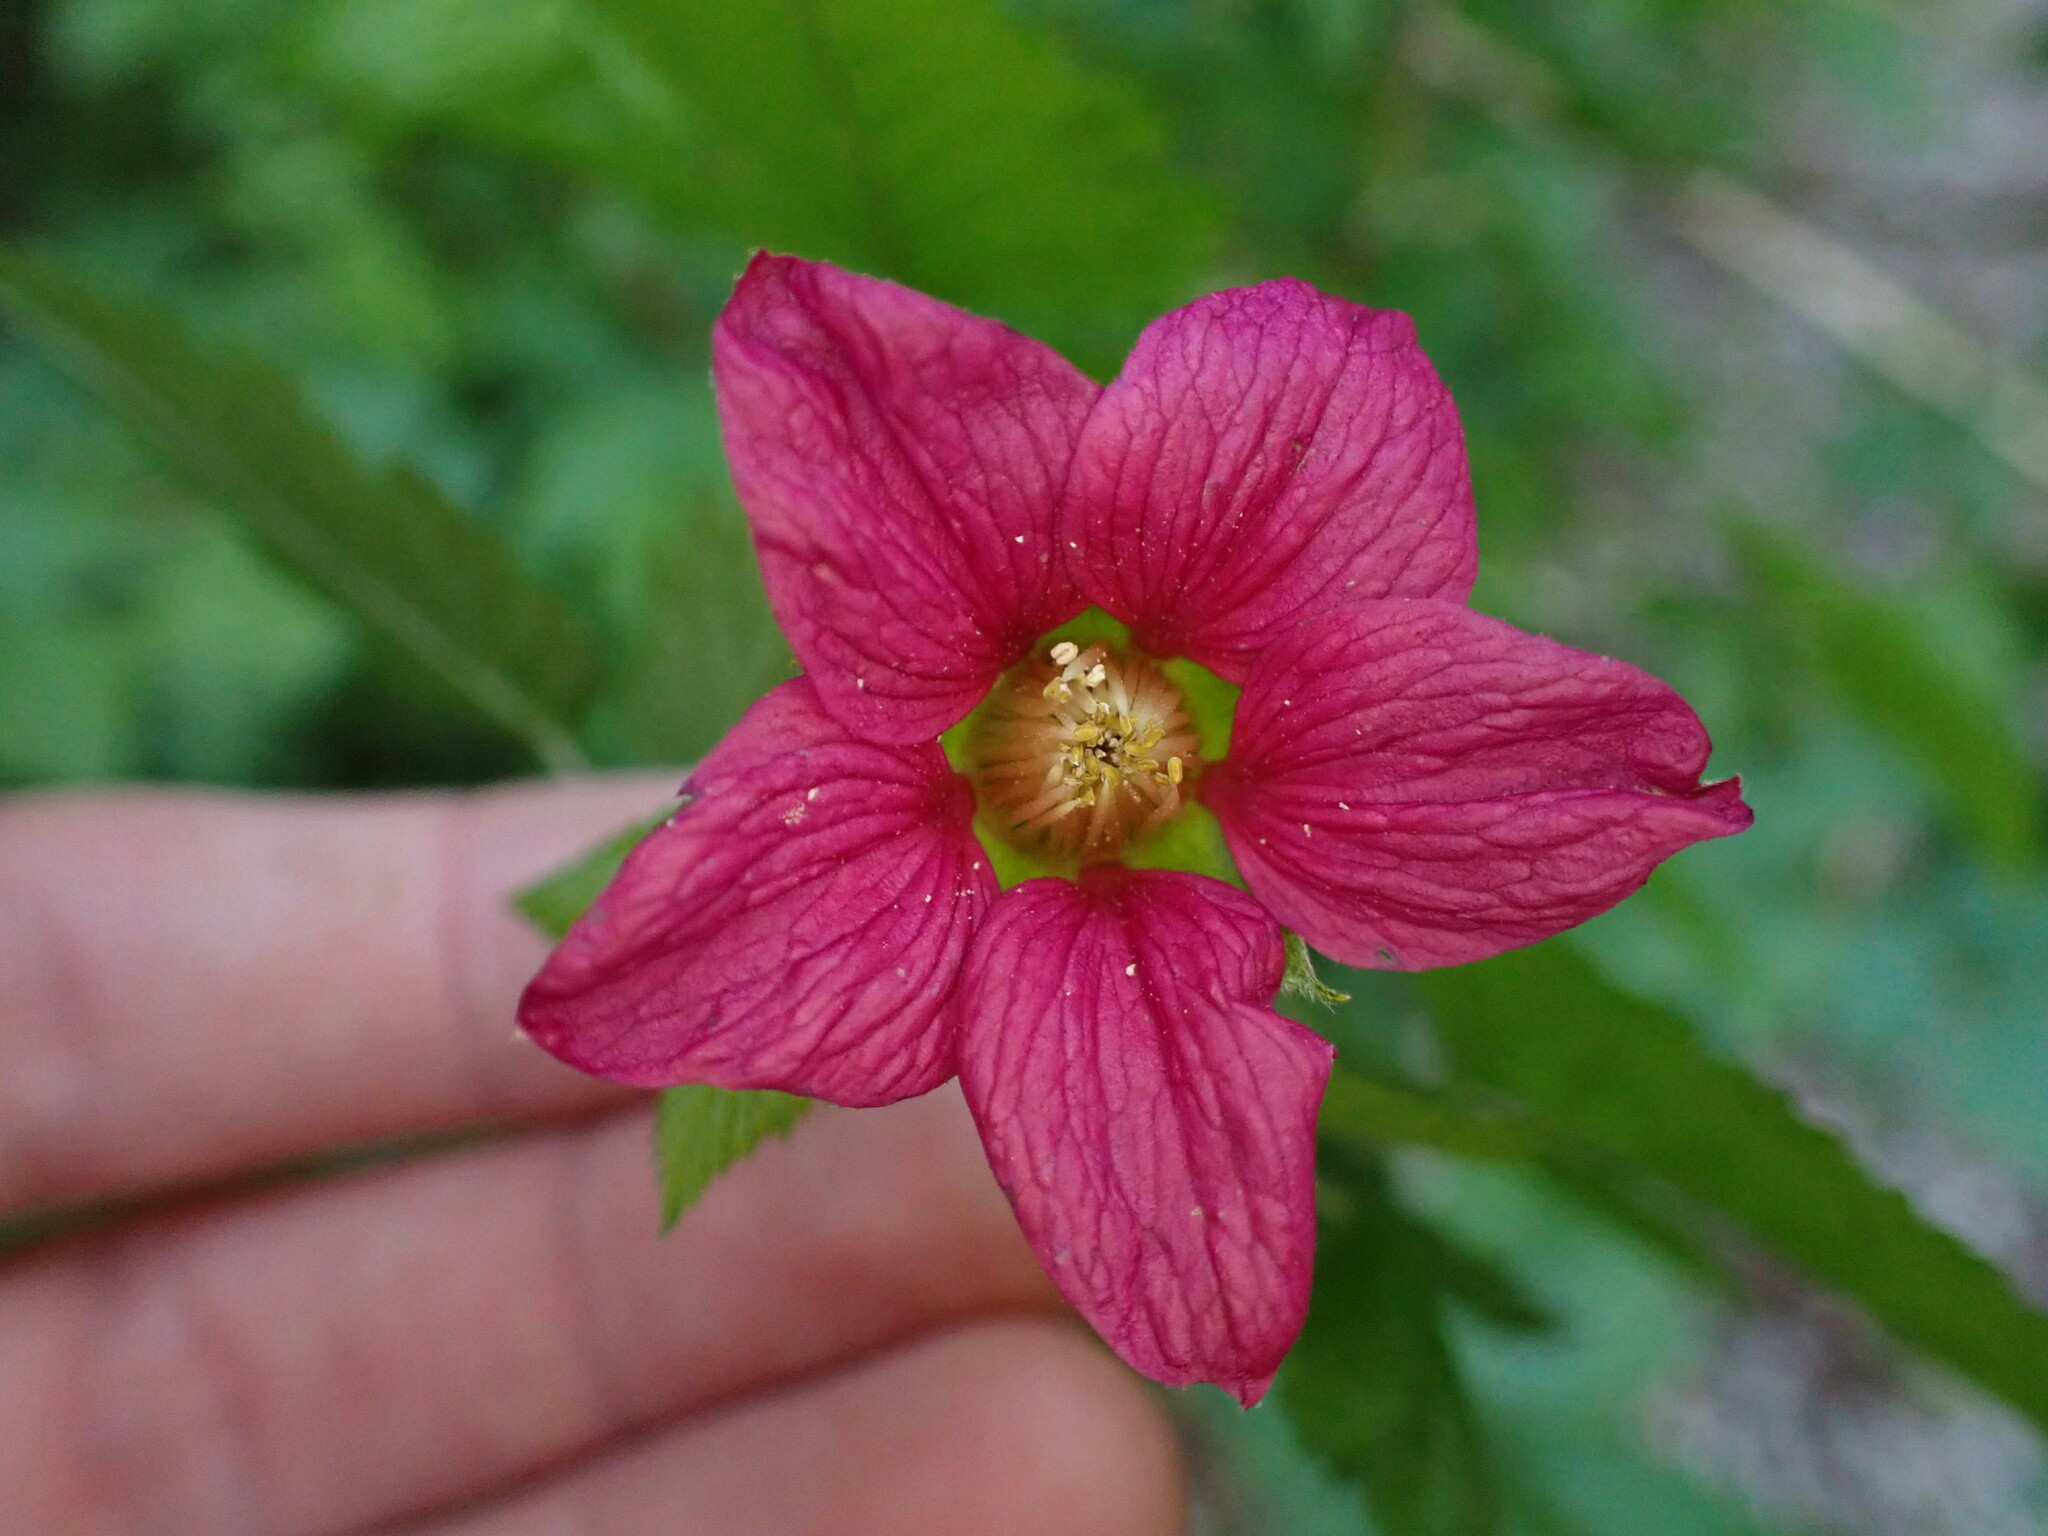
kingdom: Plantae
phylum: Tracheophyta
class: Magnoliopsida
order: Rosales
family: Rosaceae
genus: Rubus
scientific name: Rubus spectabilis
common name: Salmonberry
